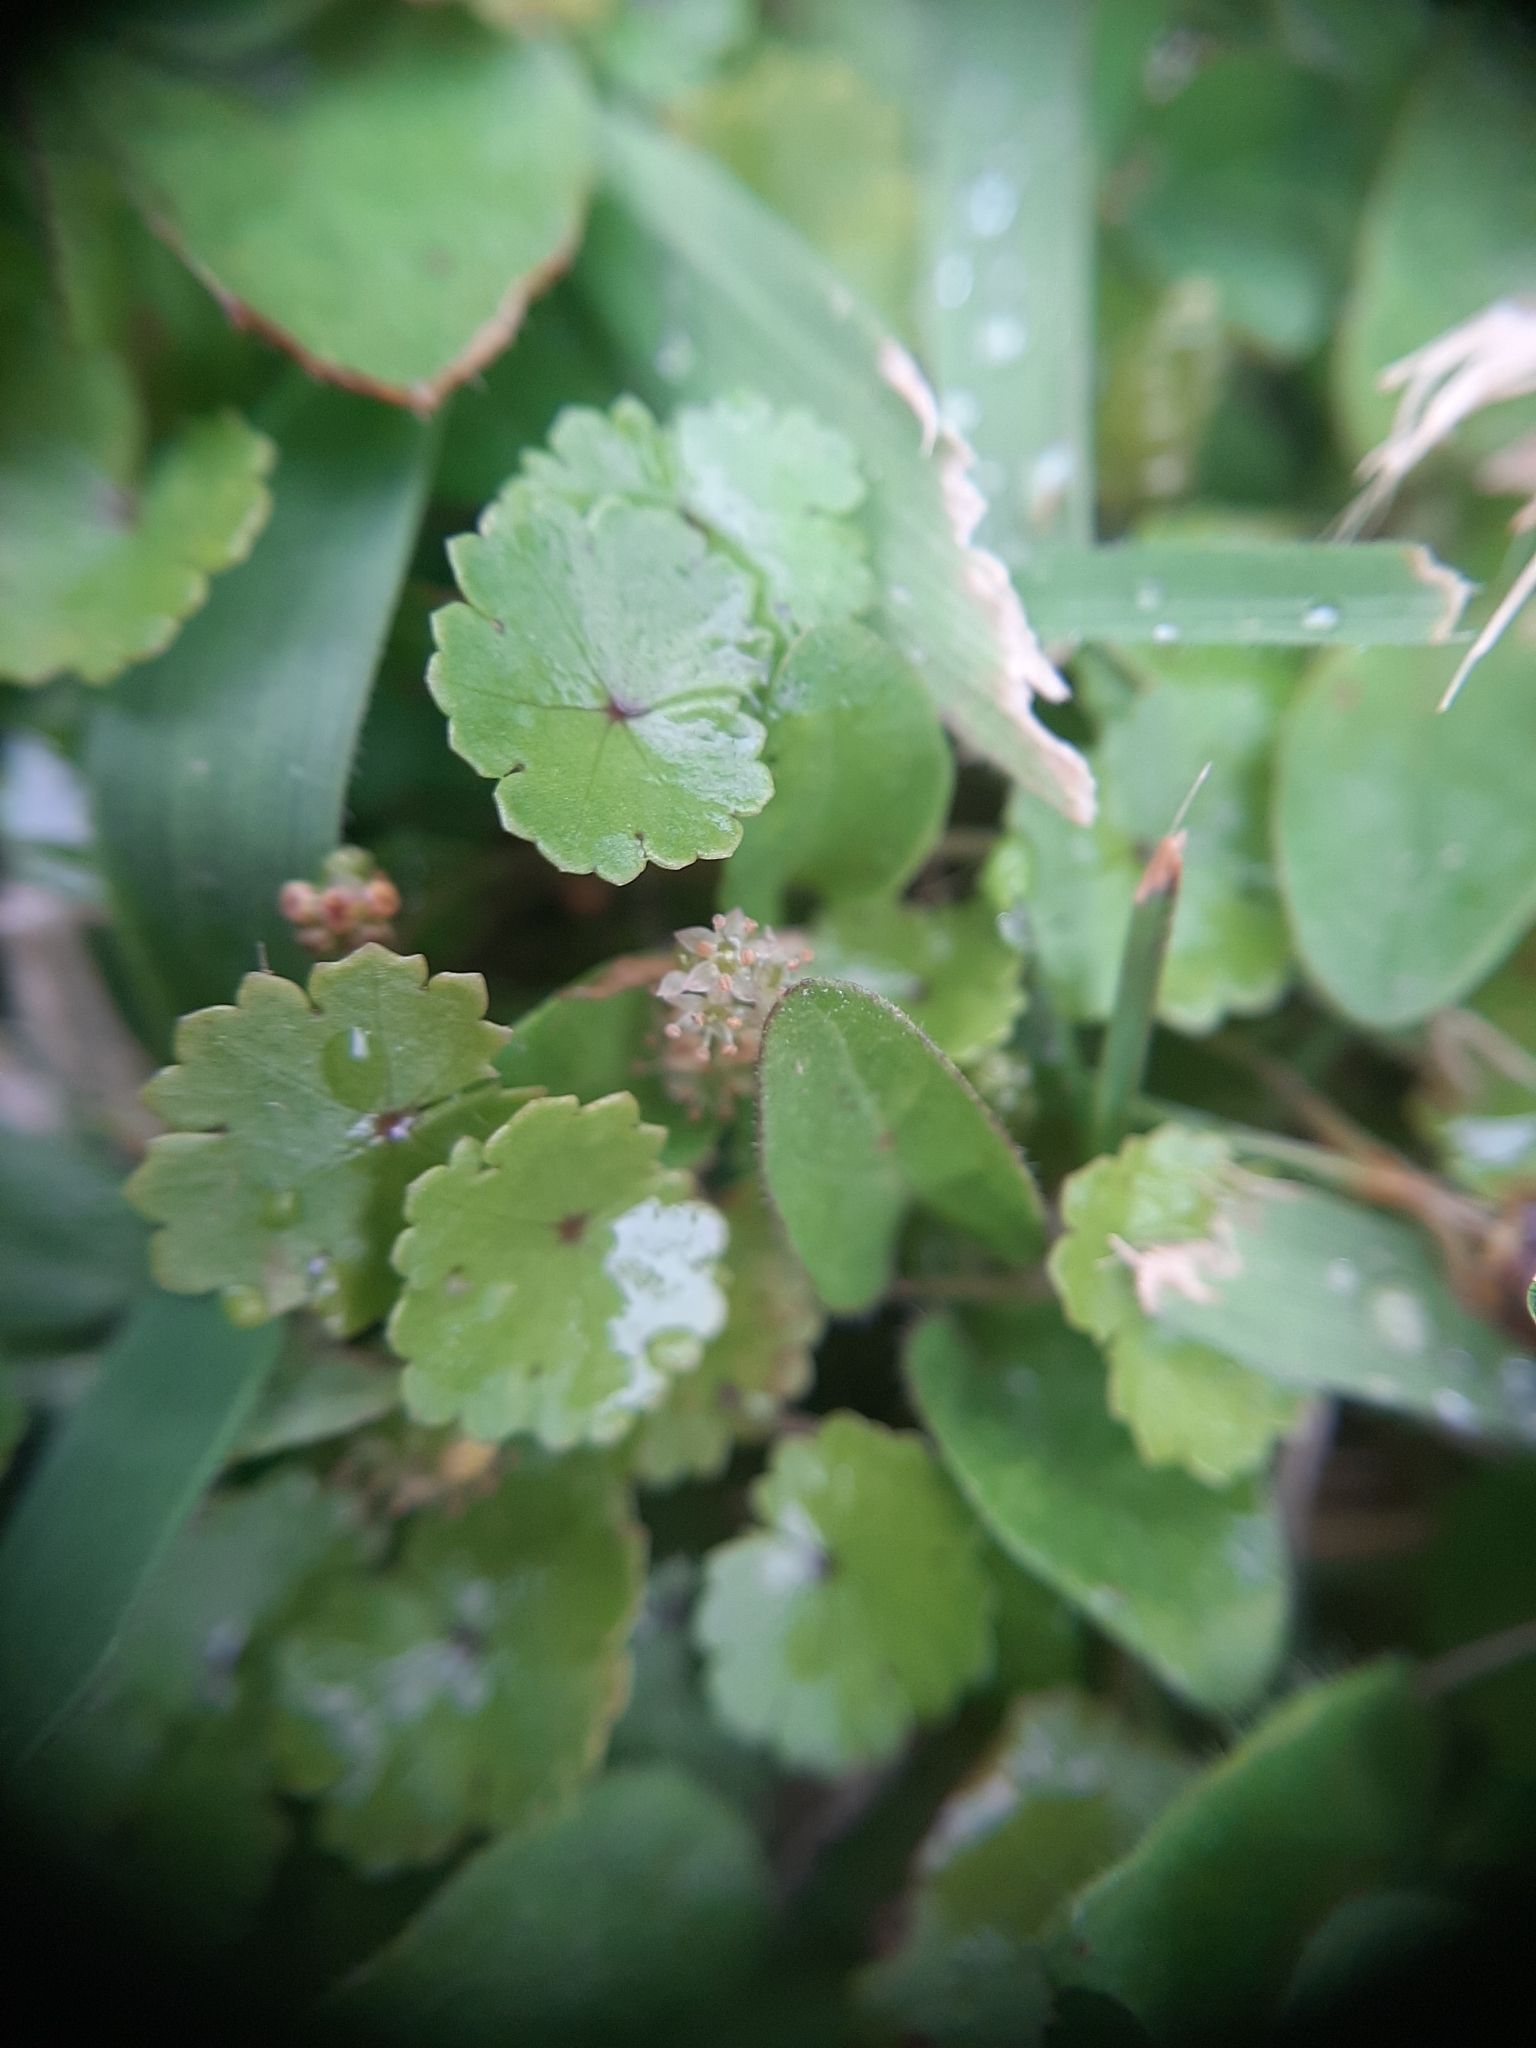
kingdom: Plantae
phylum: Tracheophyta
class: Magnoliopsida
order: Apiales
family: Araliaceae
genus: Hydrocotyle
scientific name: Hydrocotyle microphylla
